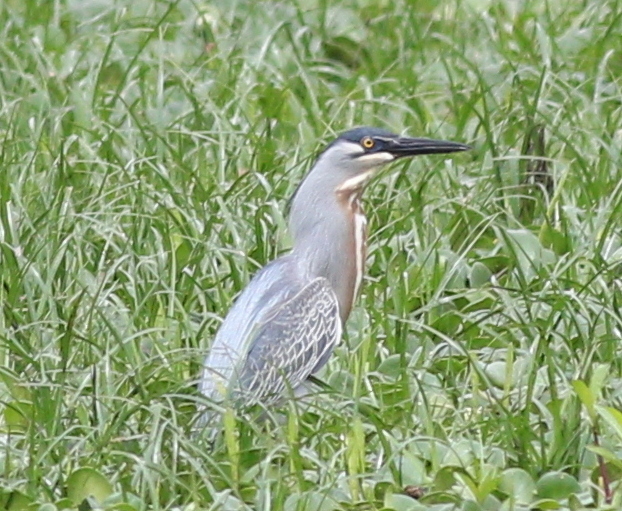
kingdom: Animalia
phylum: Chordata
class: Aves
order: Pelecaniformes
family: Ardeidae
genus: Butorides
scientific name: Butorides striata
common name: Striated heron
